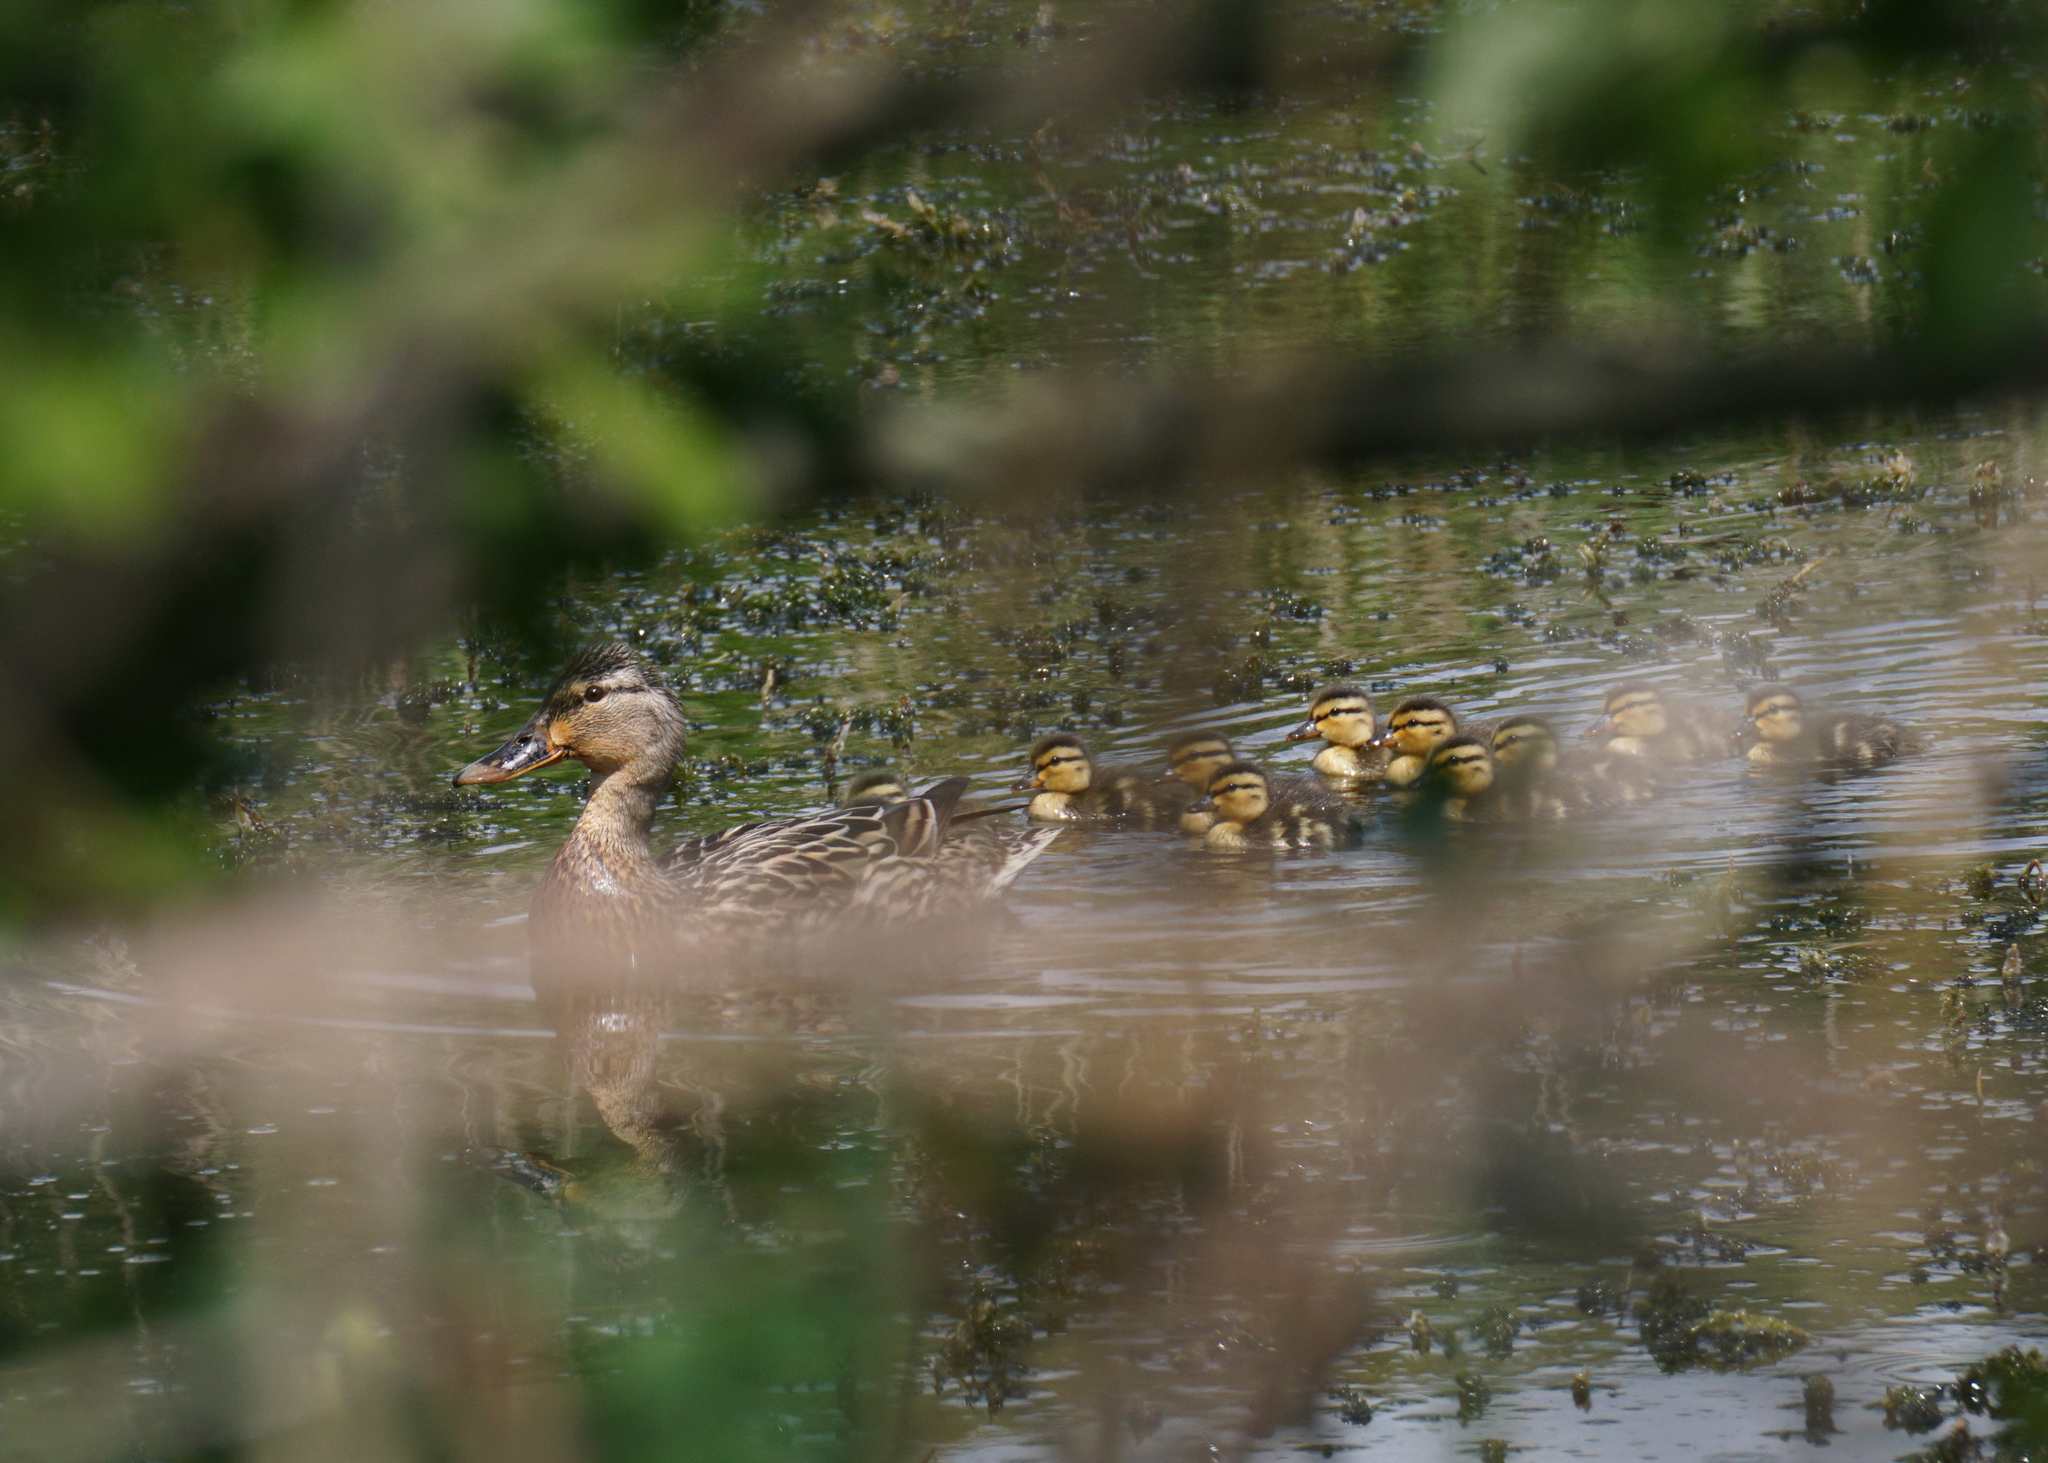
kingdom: Animalia
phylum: Chordata
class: Aves
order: Anseriformes
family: Anatidae
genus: Anas
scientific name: Anas platyrhynchos
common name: Mallard
